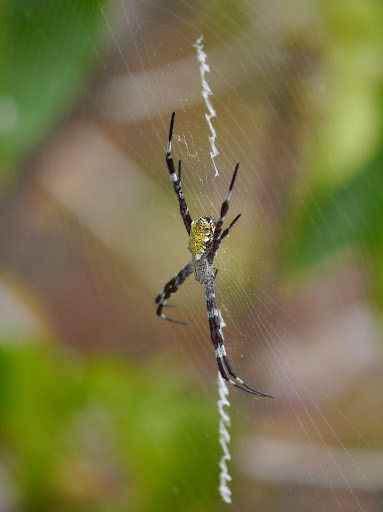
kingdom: Animalia
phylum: Arthropoda
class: Arachnida
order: Araneae
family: Araneidae
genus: Argiope
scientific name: Argiope appensa
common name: Garden spider
